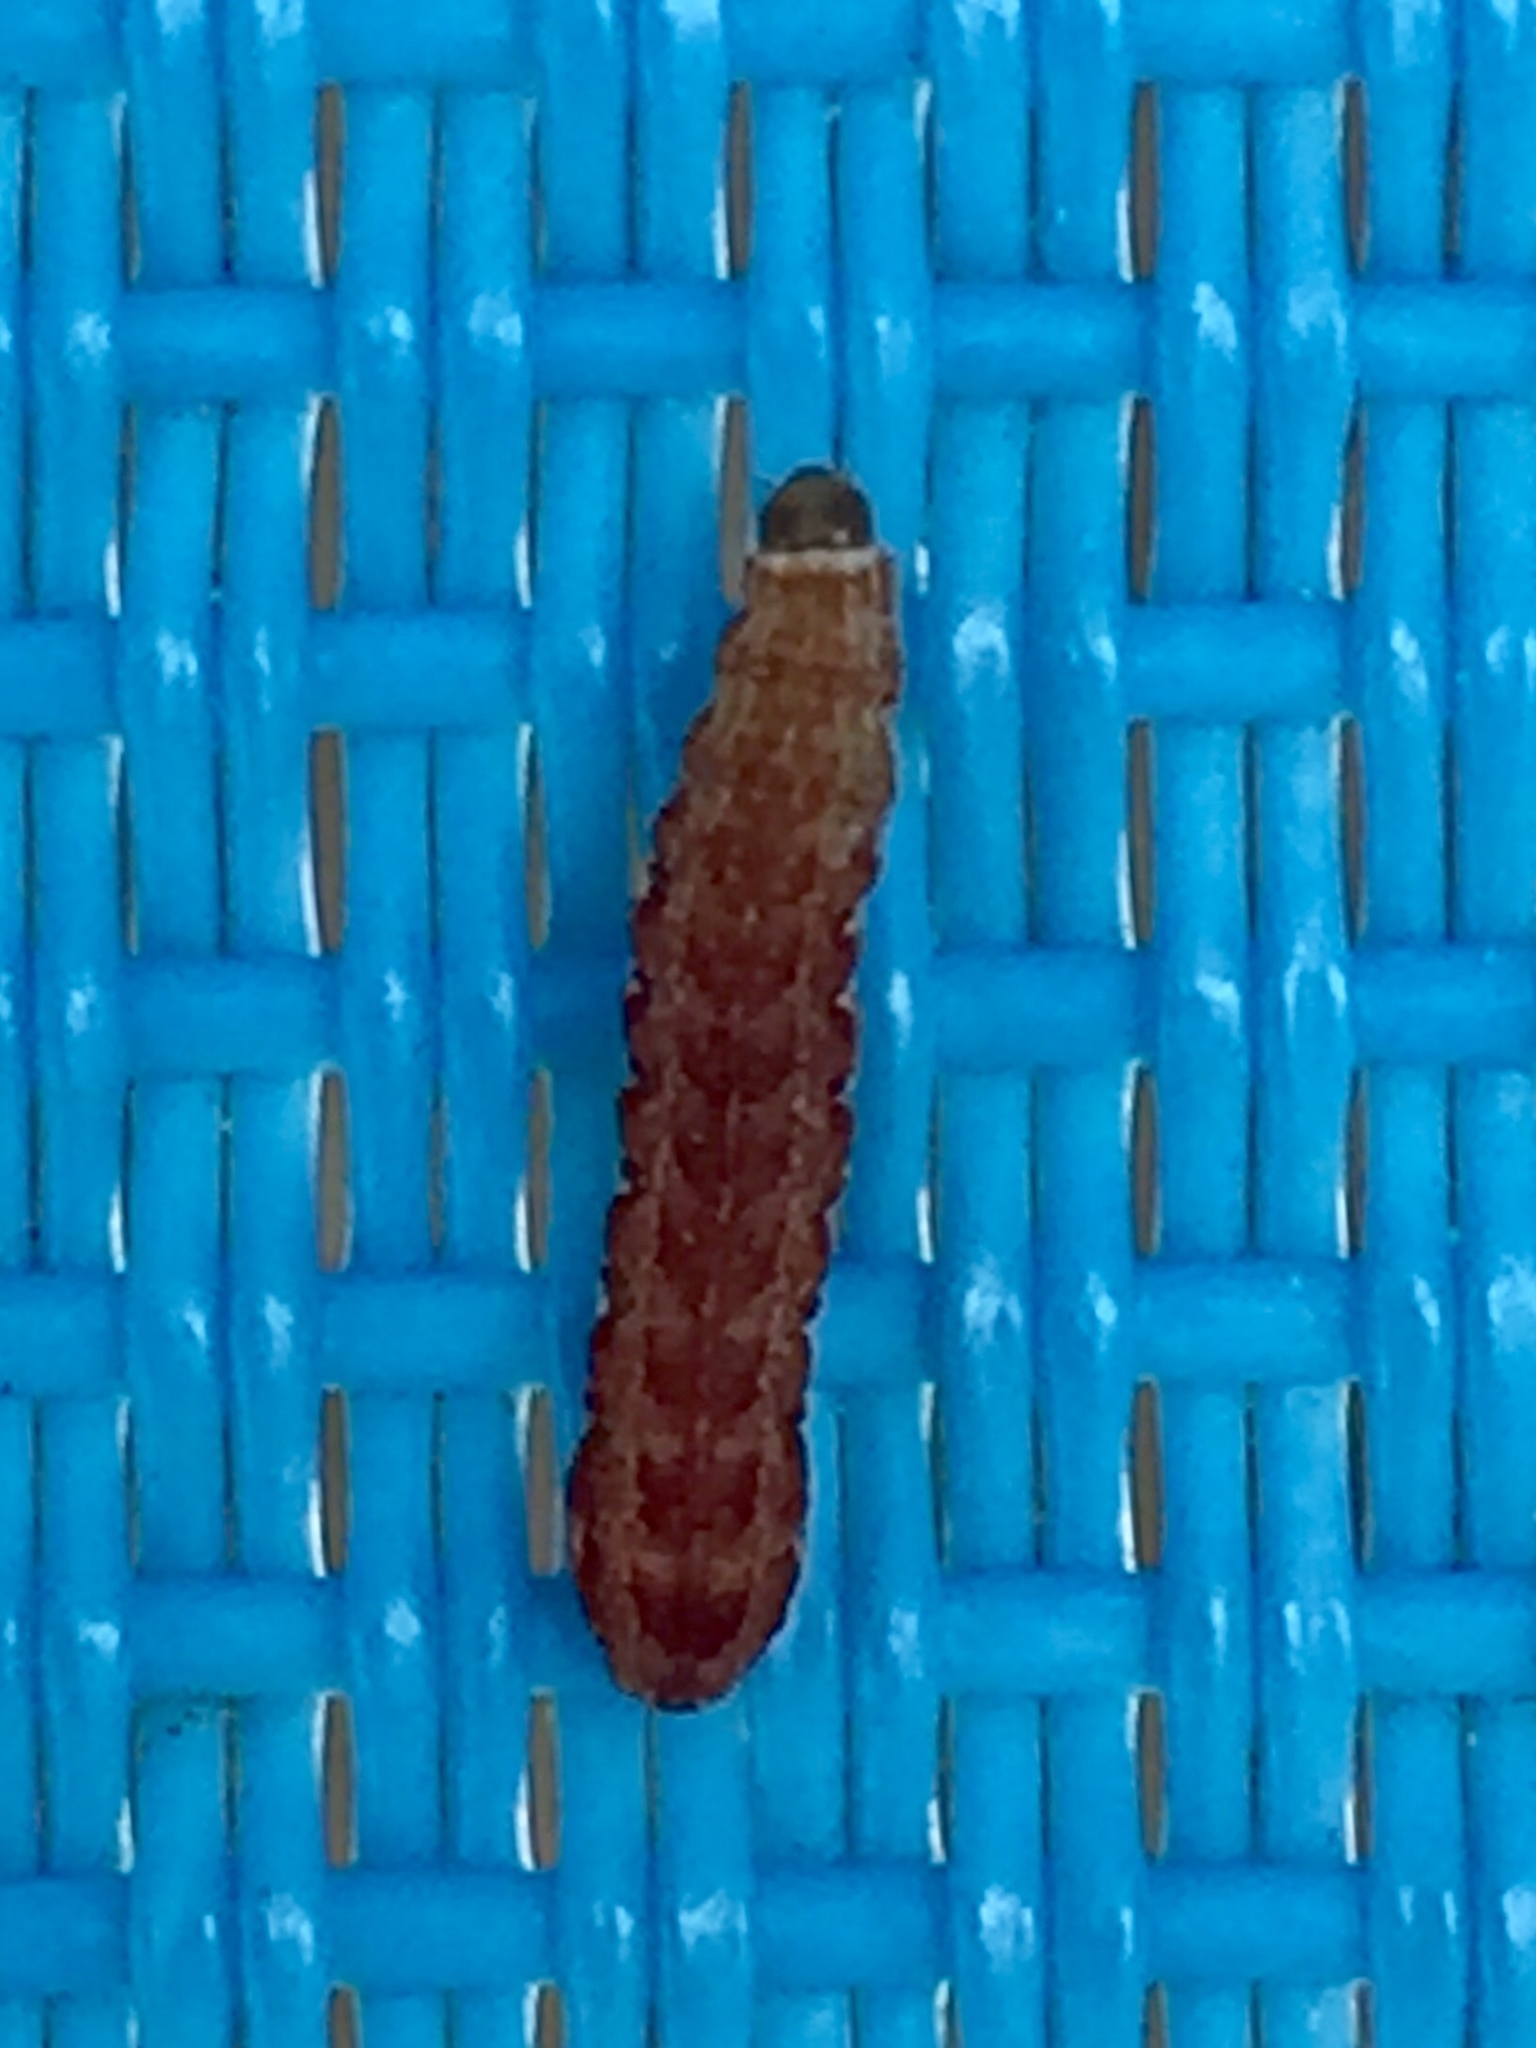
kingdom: Animalia
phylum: Arthropoda
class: Insecta
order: Lepidoptera
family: Noctuidae
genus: Agrochola
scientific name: Agrochola bicolorago
